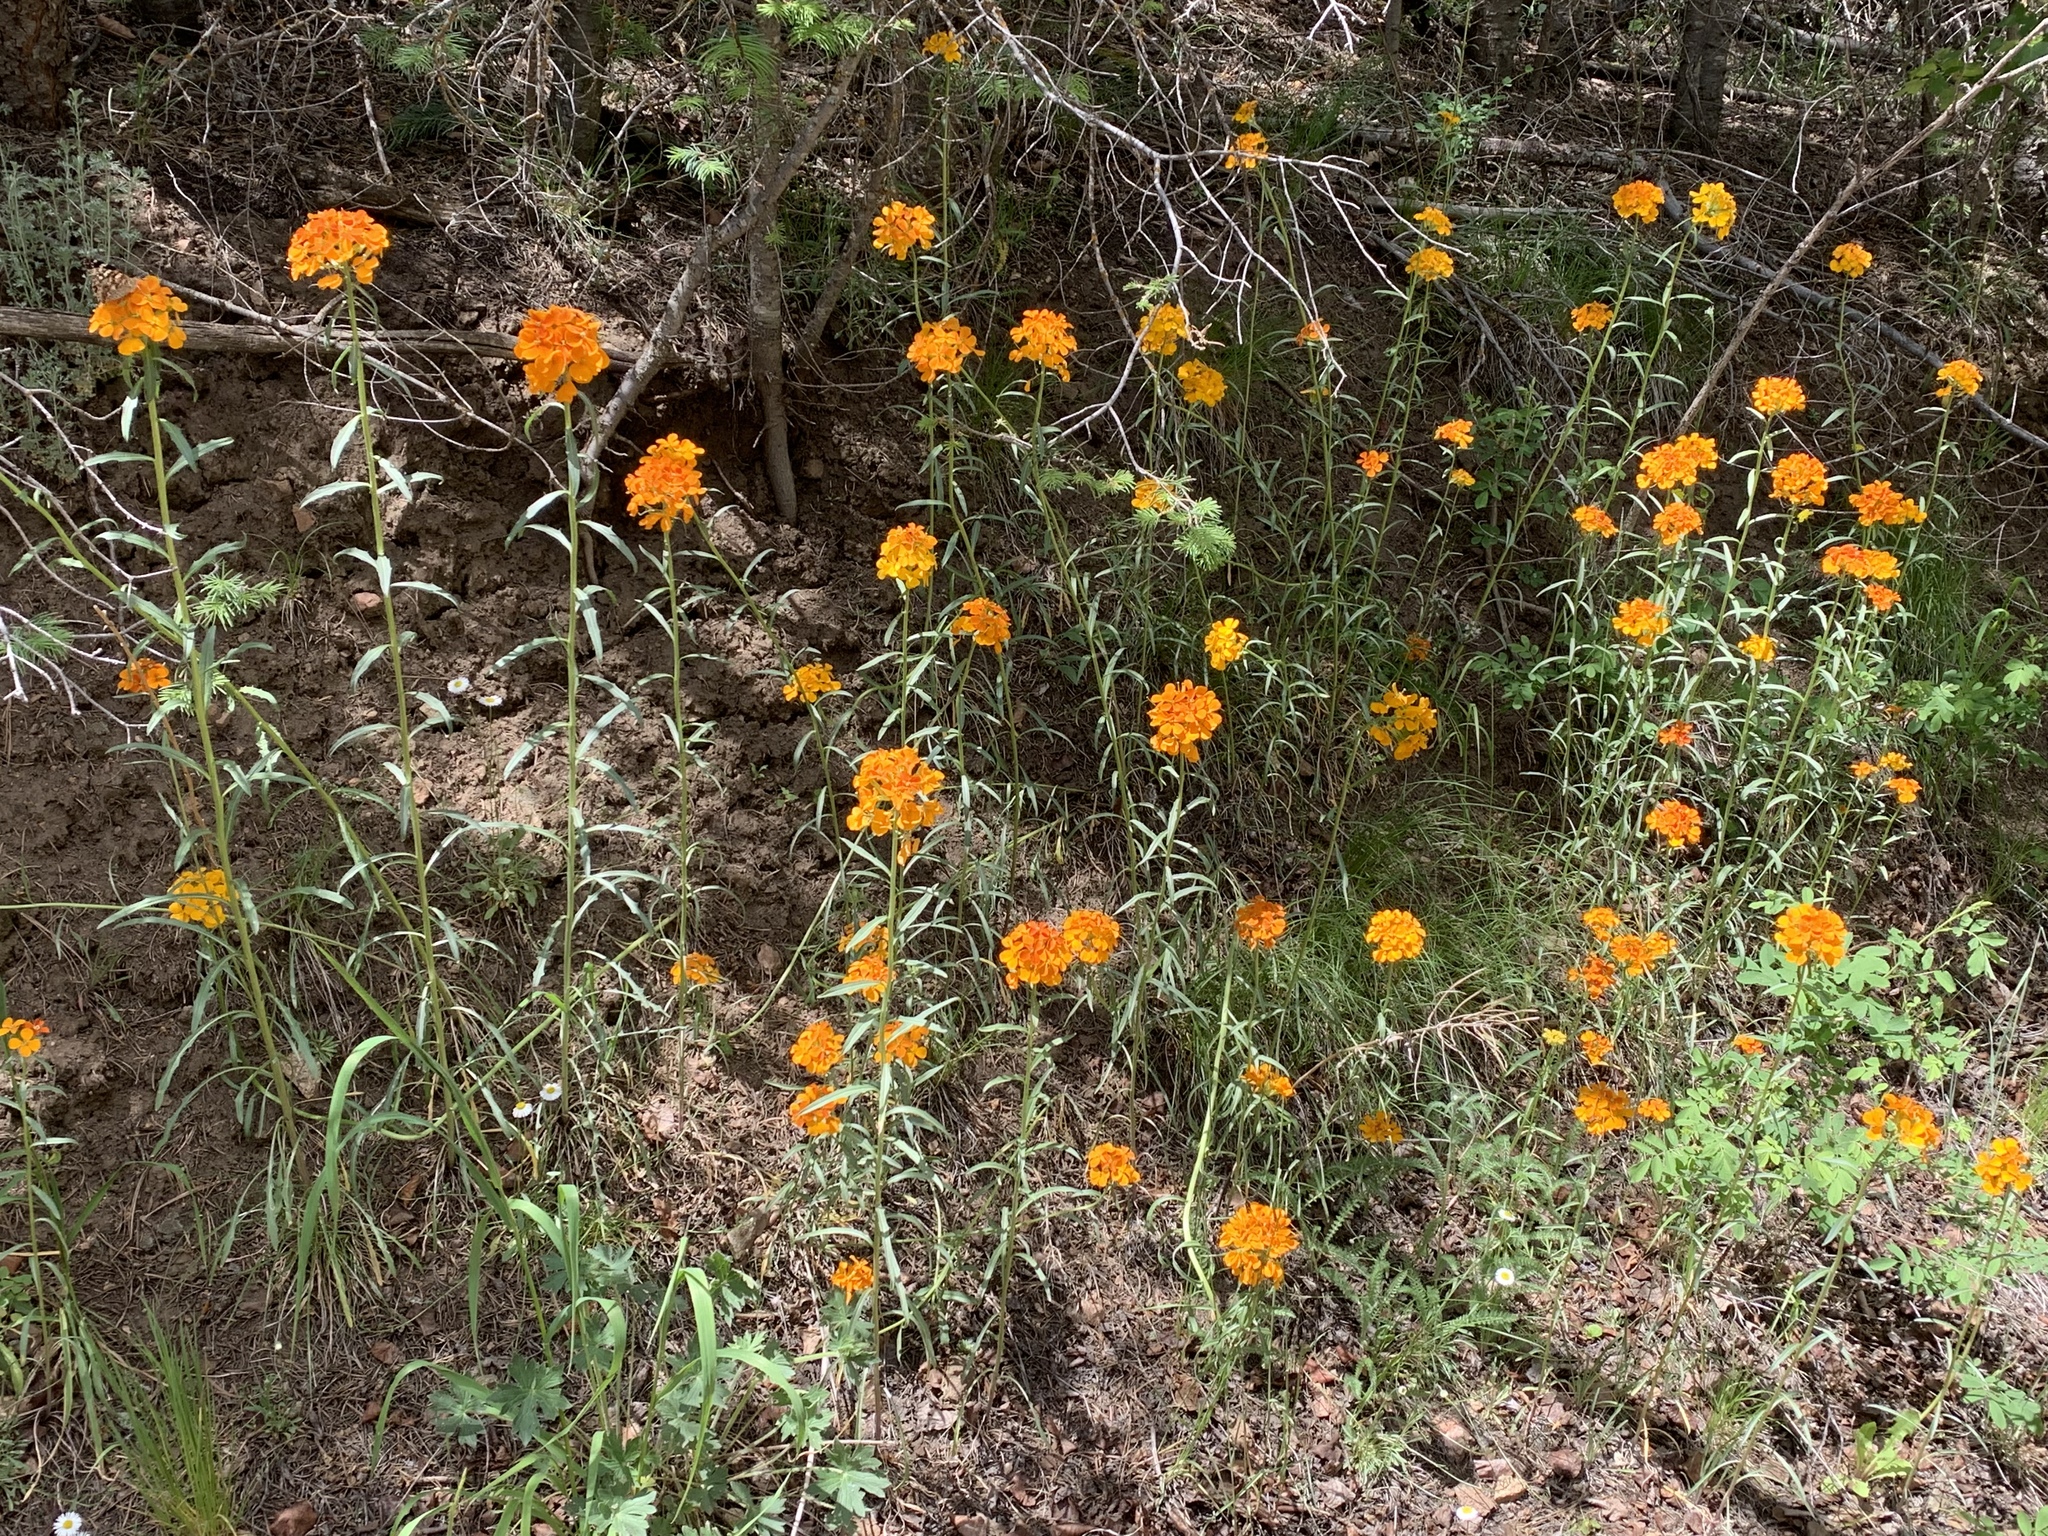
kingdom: Plantae
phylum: Tracheophyta
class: Magnoliopsida
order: Brassicales
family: Brassicaceae
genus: Erysimum
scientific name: Erysimum capitatum
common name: Western wallflower
